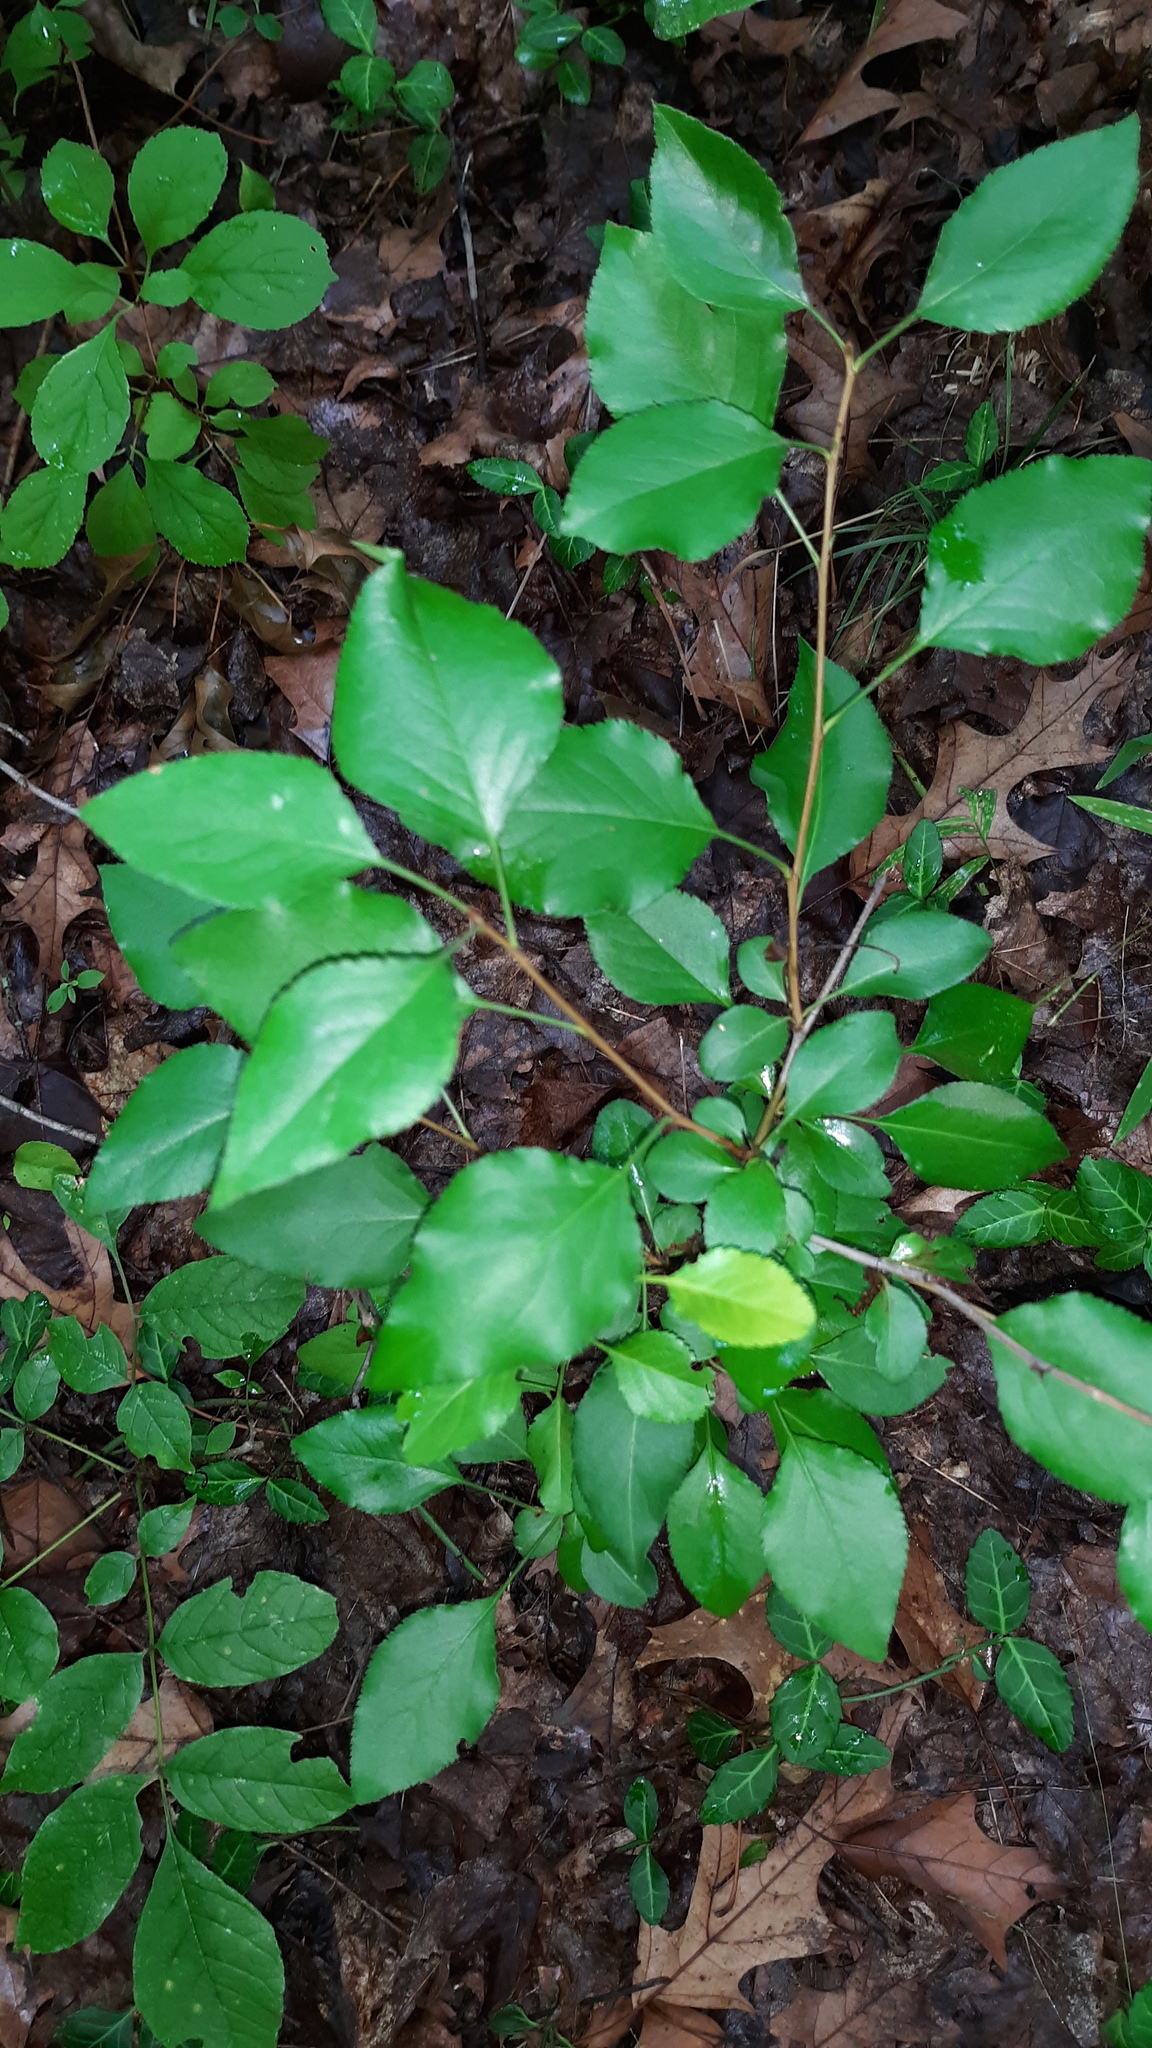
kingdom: Plantae
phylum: Tracheophyta
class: Magnoliopsida
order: Rosales
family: Rosaceae
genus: Pyrus
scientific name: Pyrus calleryana
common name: Callery pear
